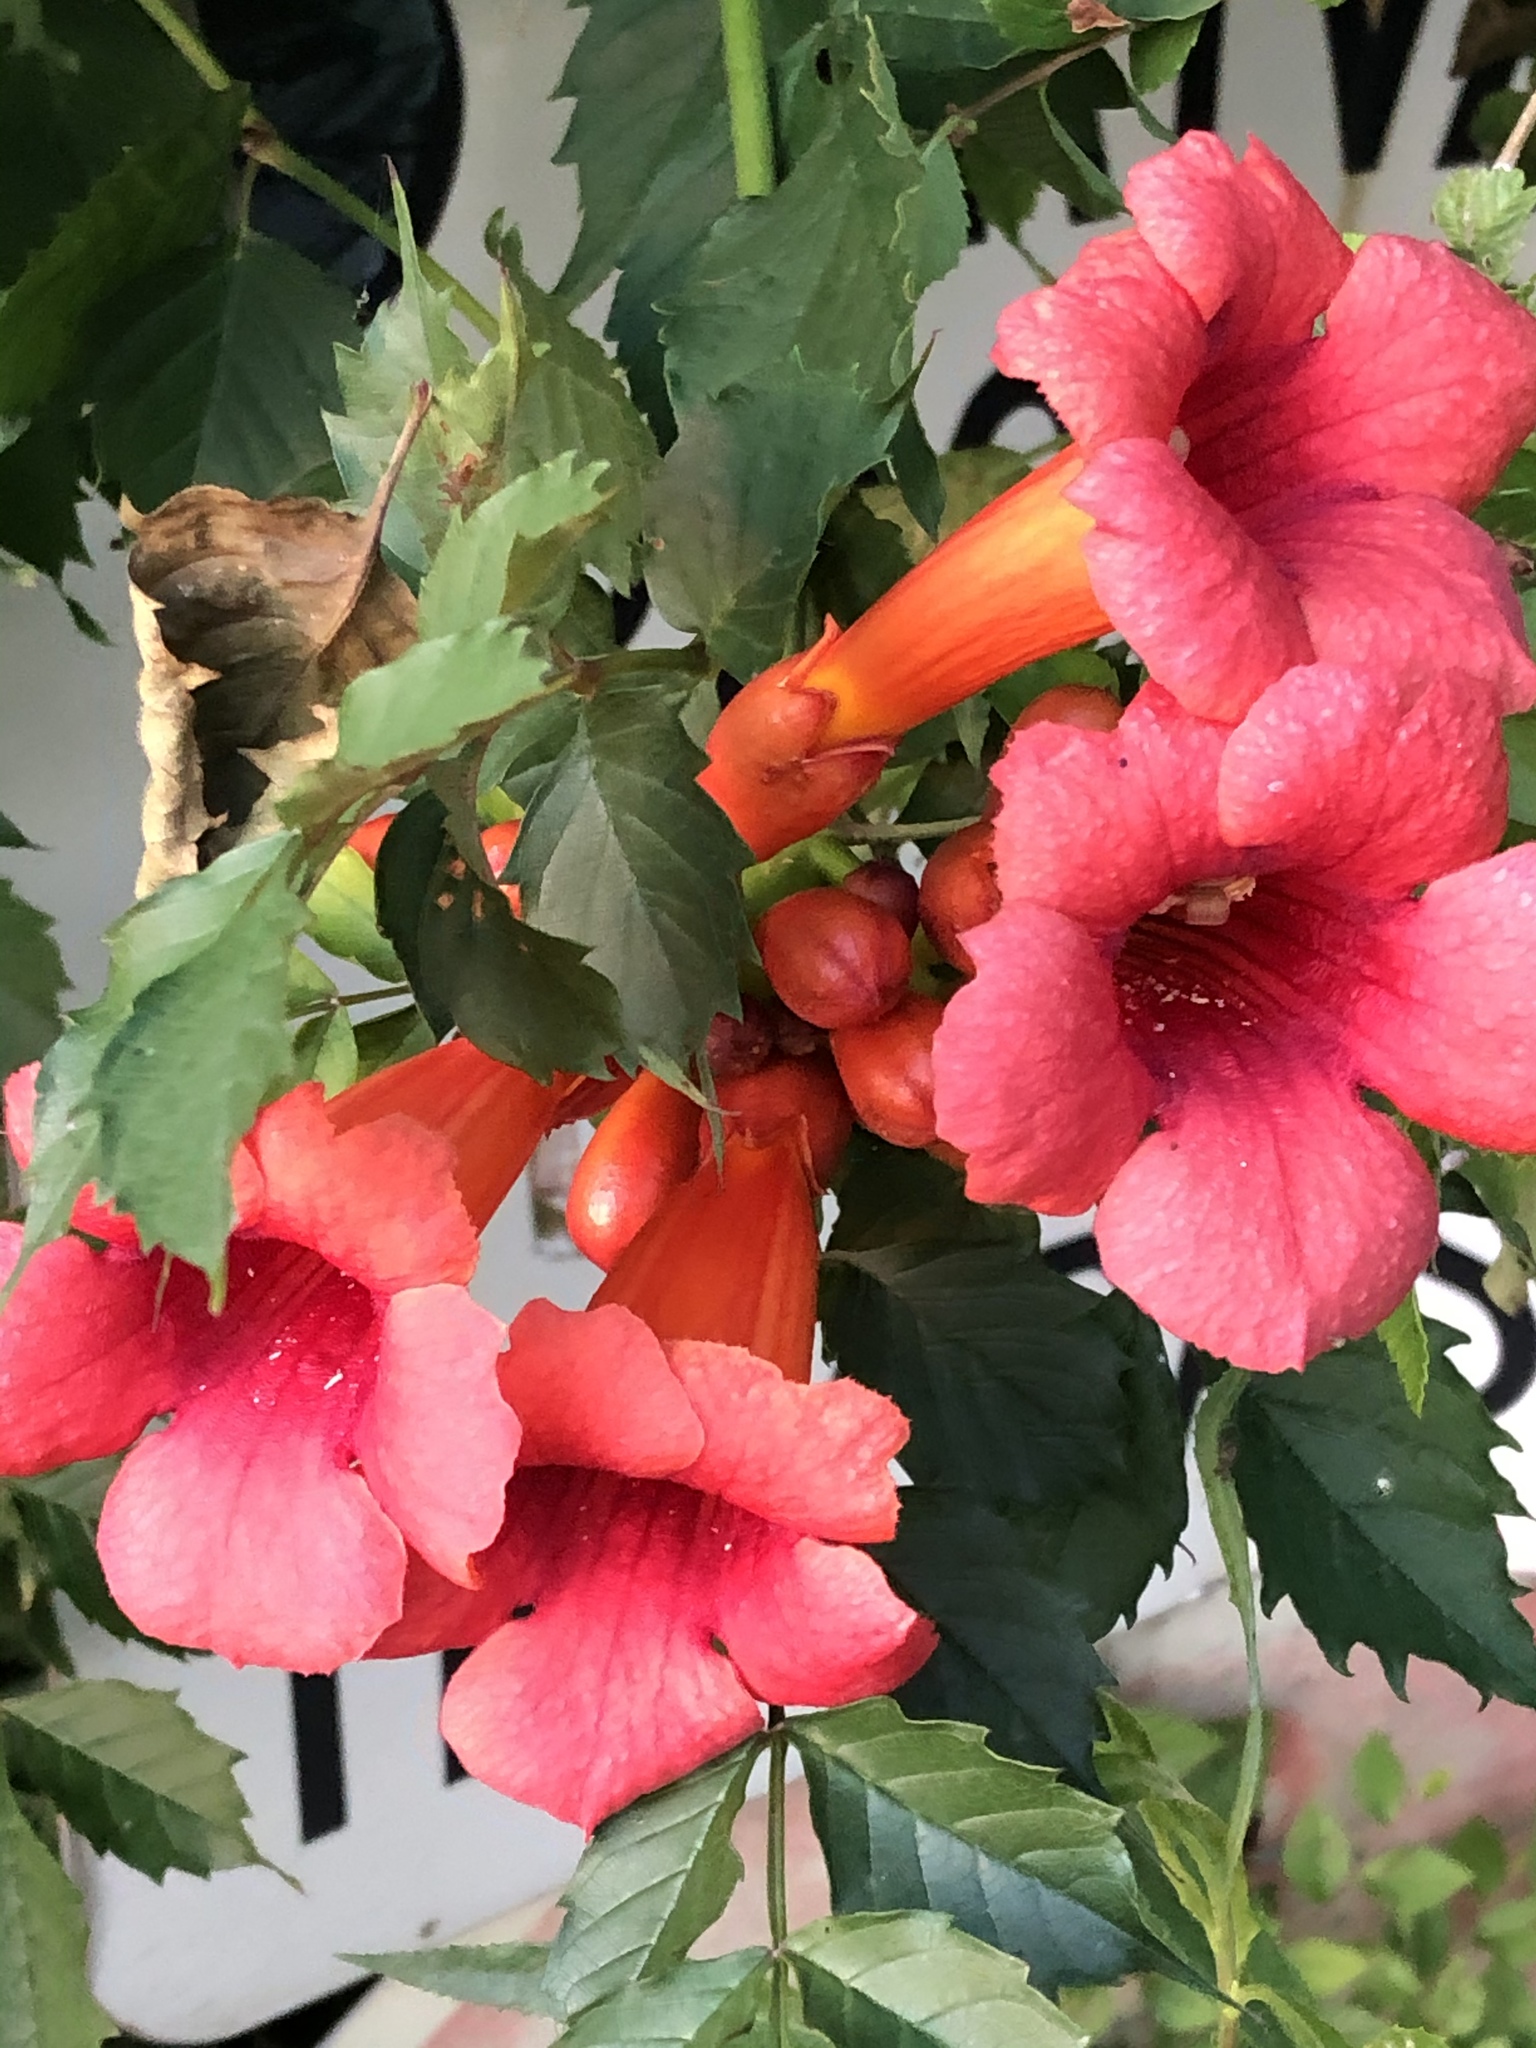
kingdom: Plantae
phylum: Tracheophyta
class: Magnoliopsida
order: Lamiales
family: Bignoniaceae
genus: Campsis
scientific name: Campsis radicans
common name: Trumpet-creeper
